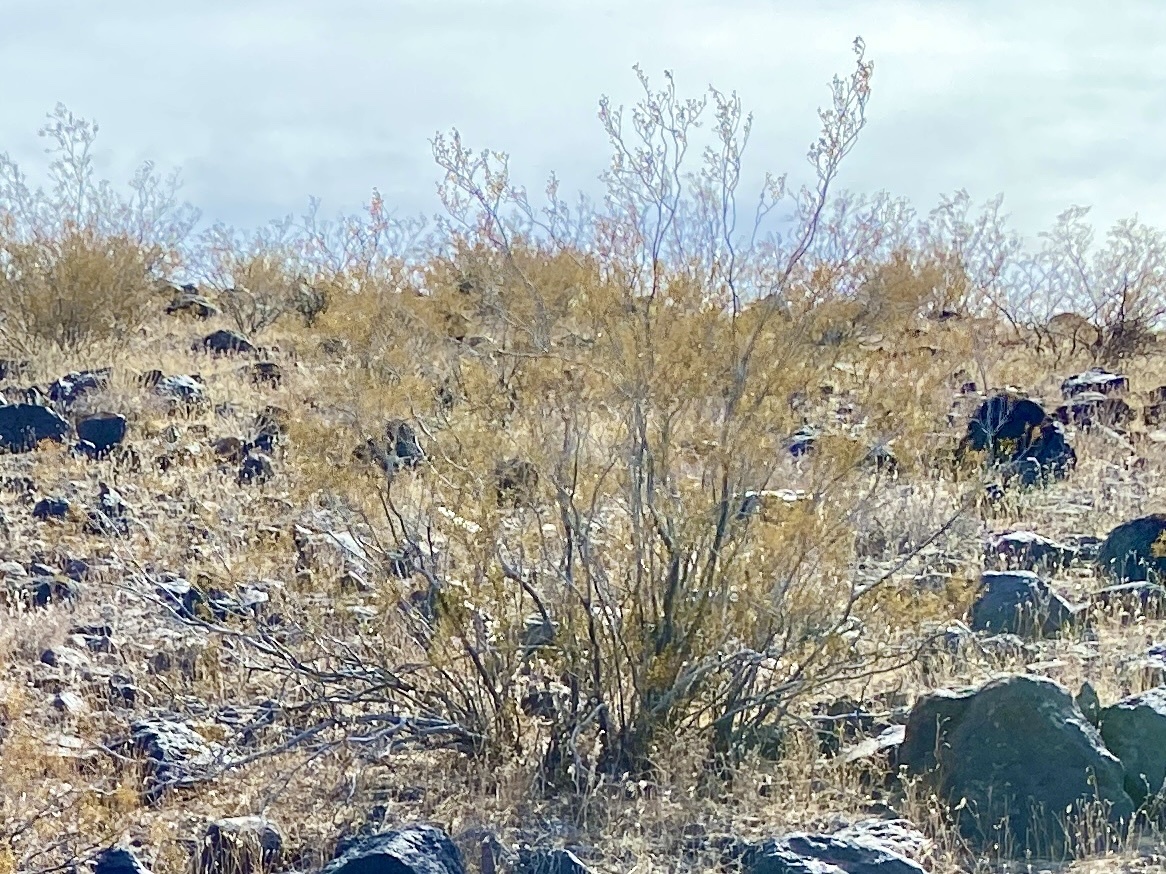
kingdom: Plantae
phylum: Tracheophyta
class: Magnoliopsida
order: Zygophyllales
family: Zygophyllaceae
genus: Larrea
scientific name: Larrea tridentata
